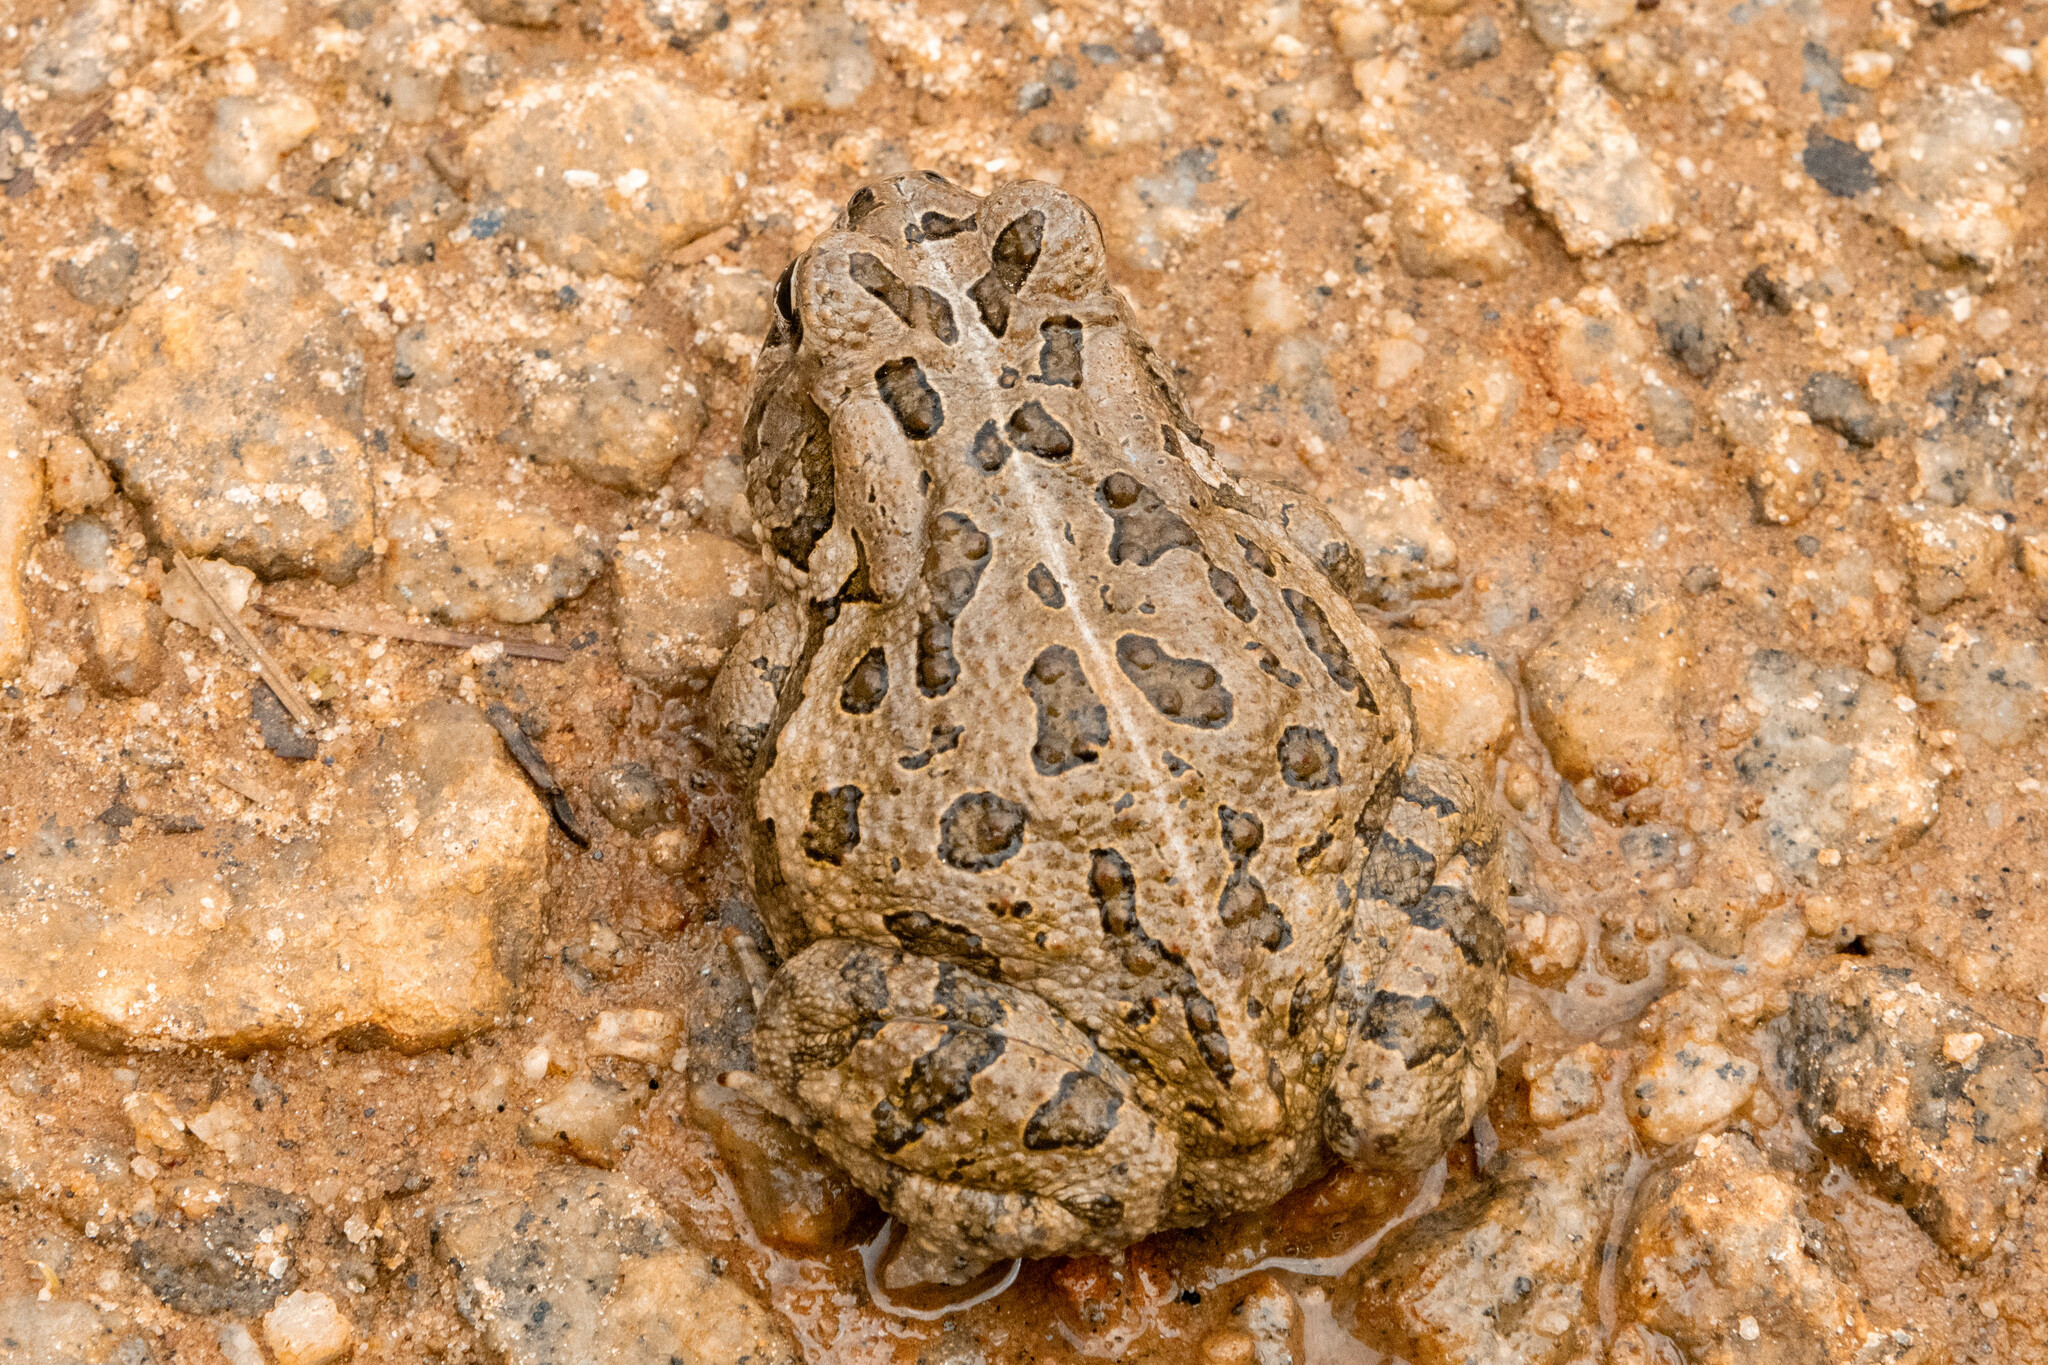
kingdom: Animalia
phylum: Chordata
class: Amphibia
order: Anura
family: Bufonidae
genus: Anaxyrus
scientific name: Anaxyrus fowleri
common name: Fowler's toad
